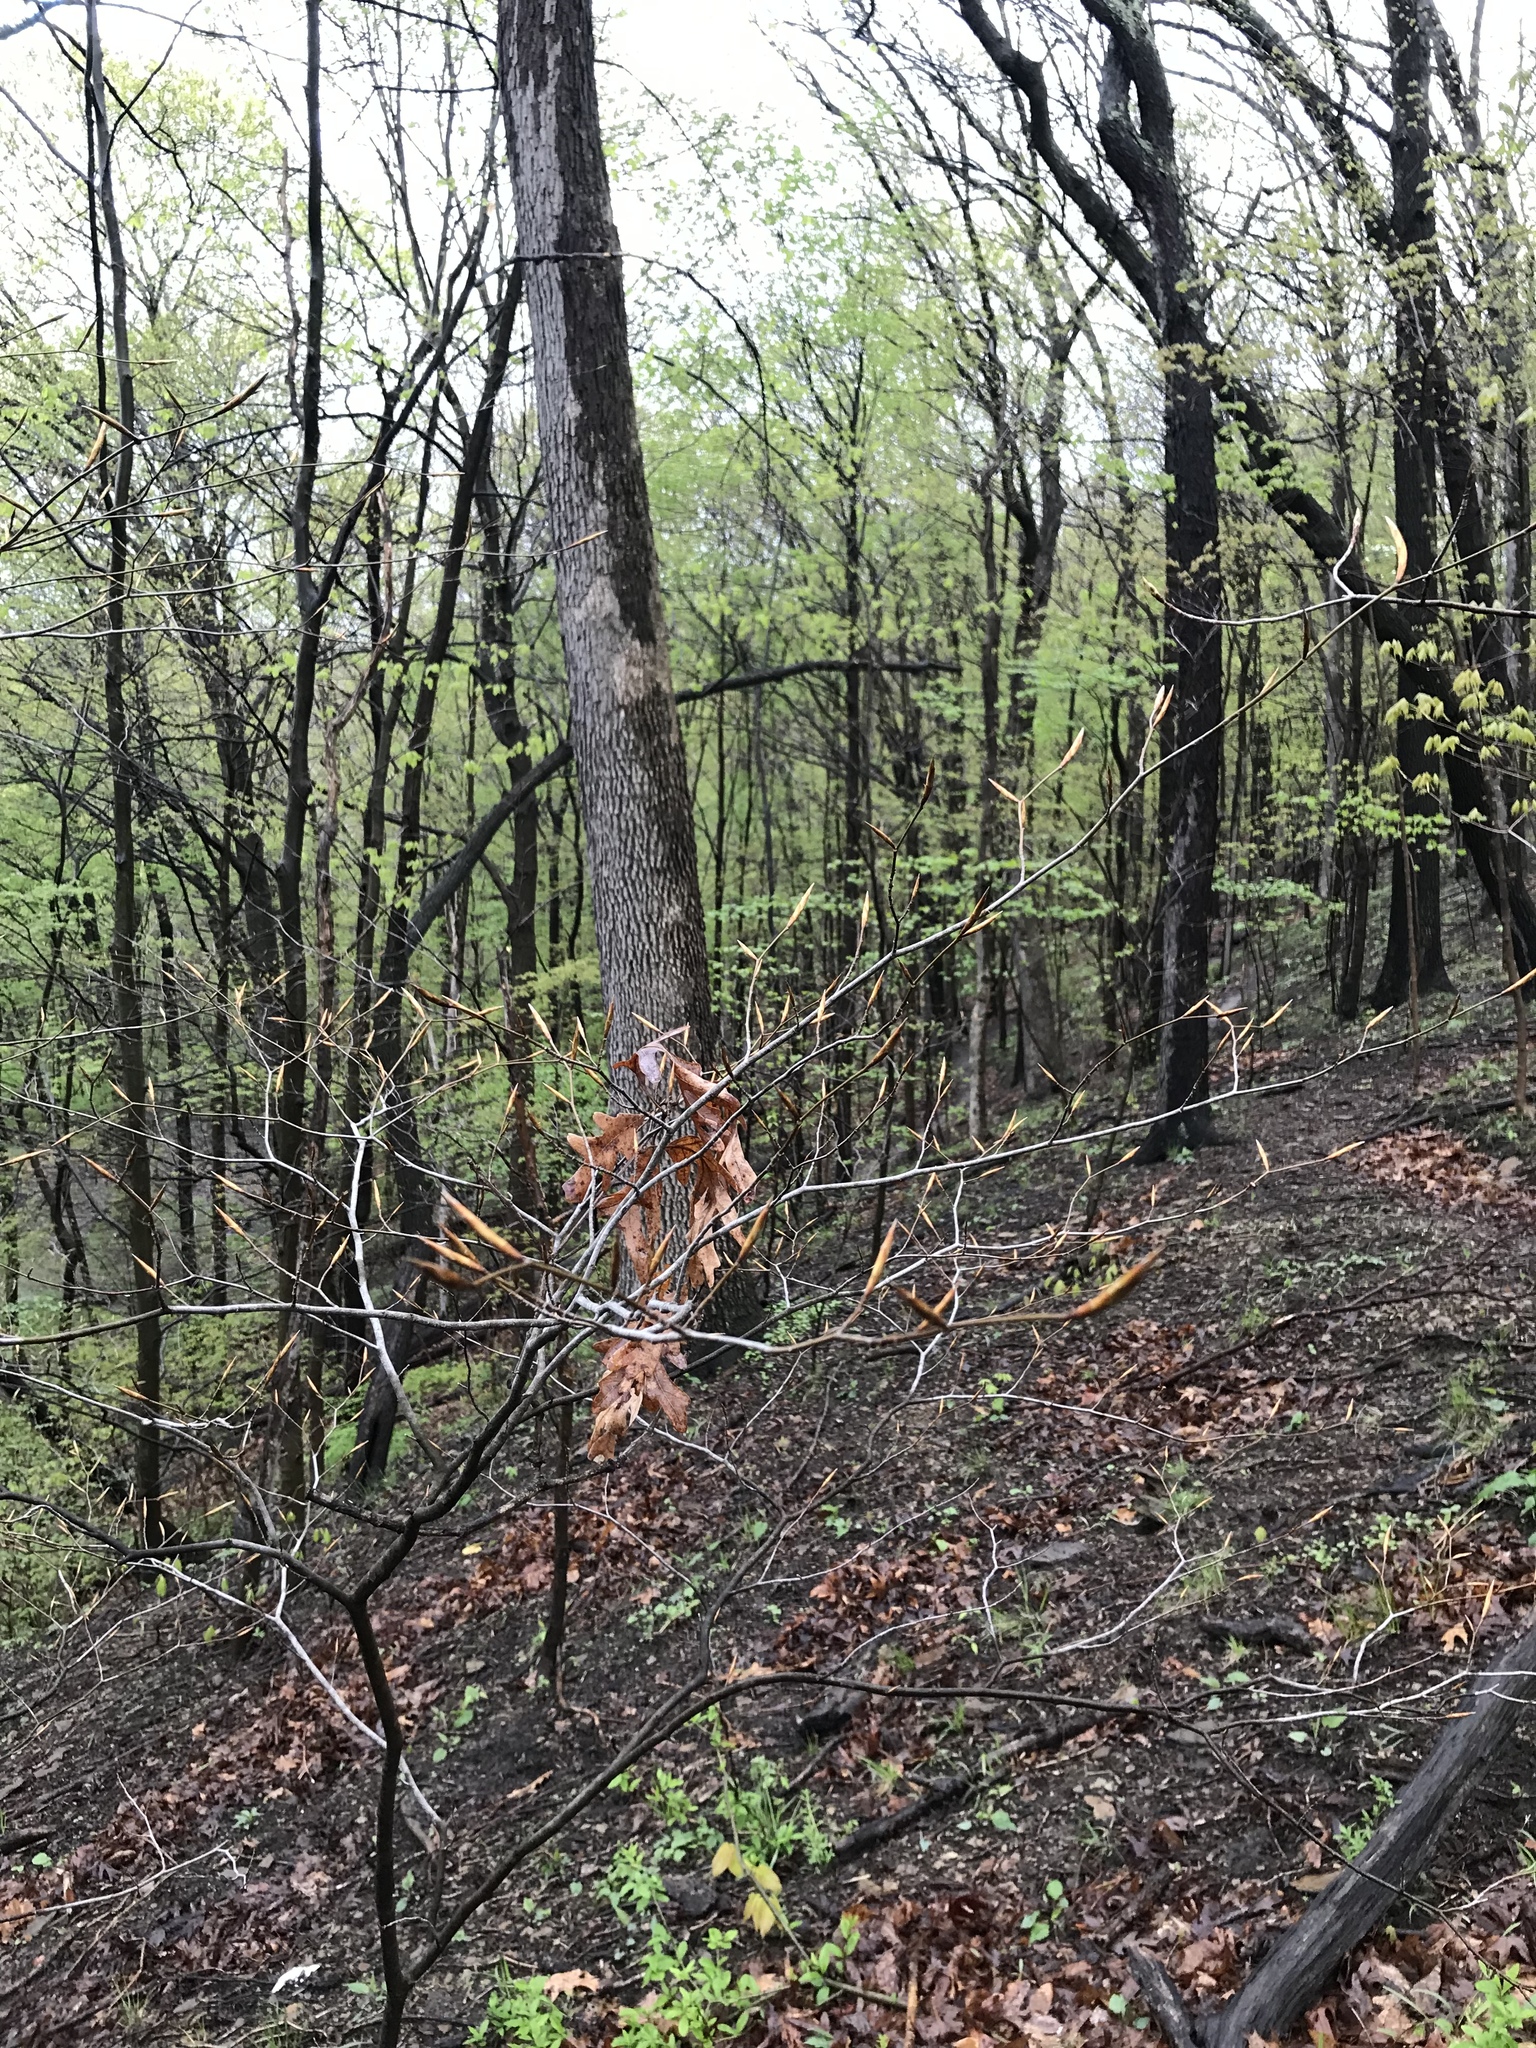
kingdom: Plantae
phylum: Tracheophyta
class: Magnoliopsida
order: Fagales
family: Fagaceae
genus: Fagus
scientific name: Fagus grandifolia
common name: American beech
